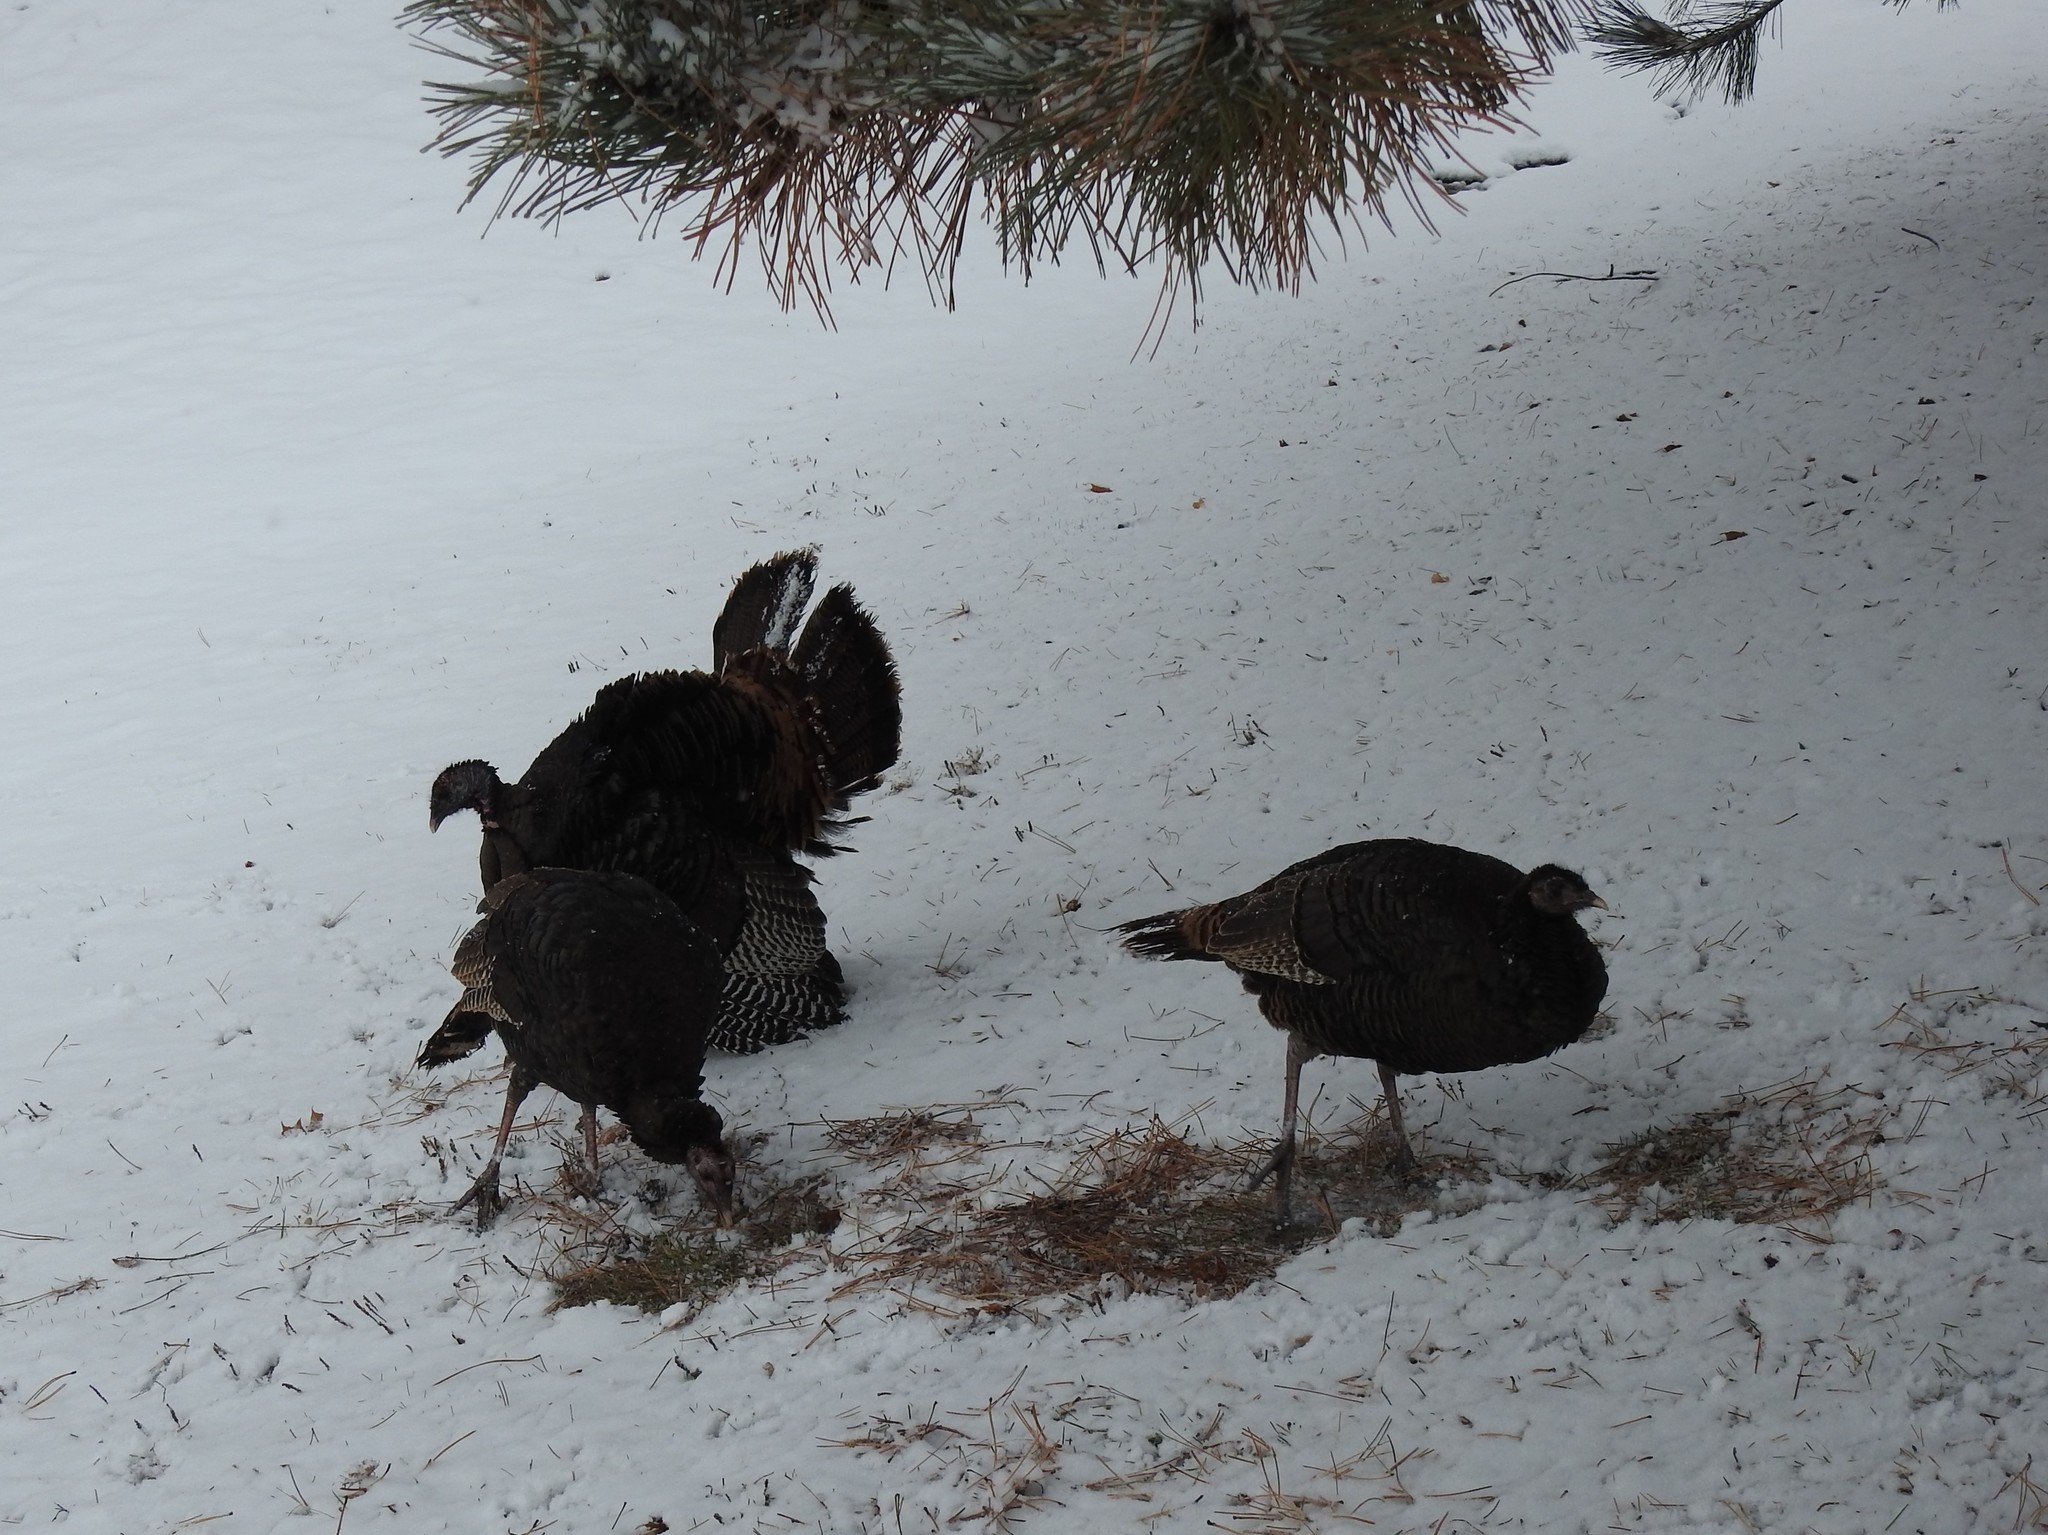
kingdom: Animalia
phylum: Chordata
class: Aves
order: Galliformes
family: Phasianidae
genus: Meleagris
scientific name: Meleagris gallopavo
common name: Wild turkey
